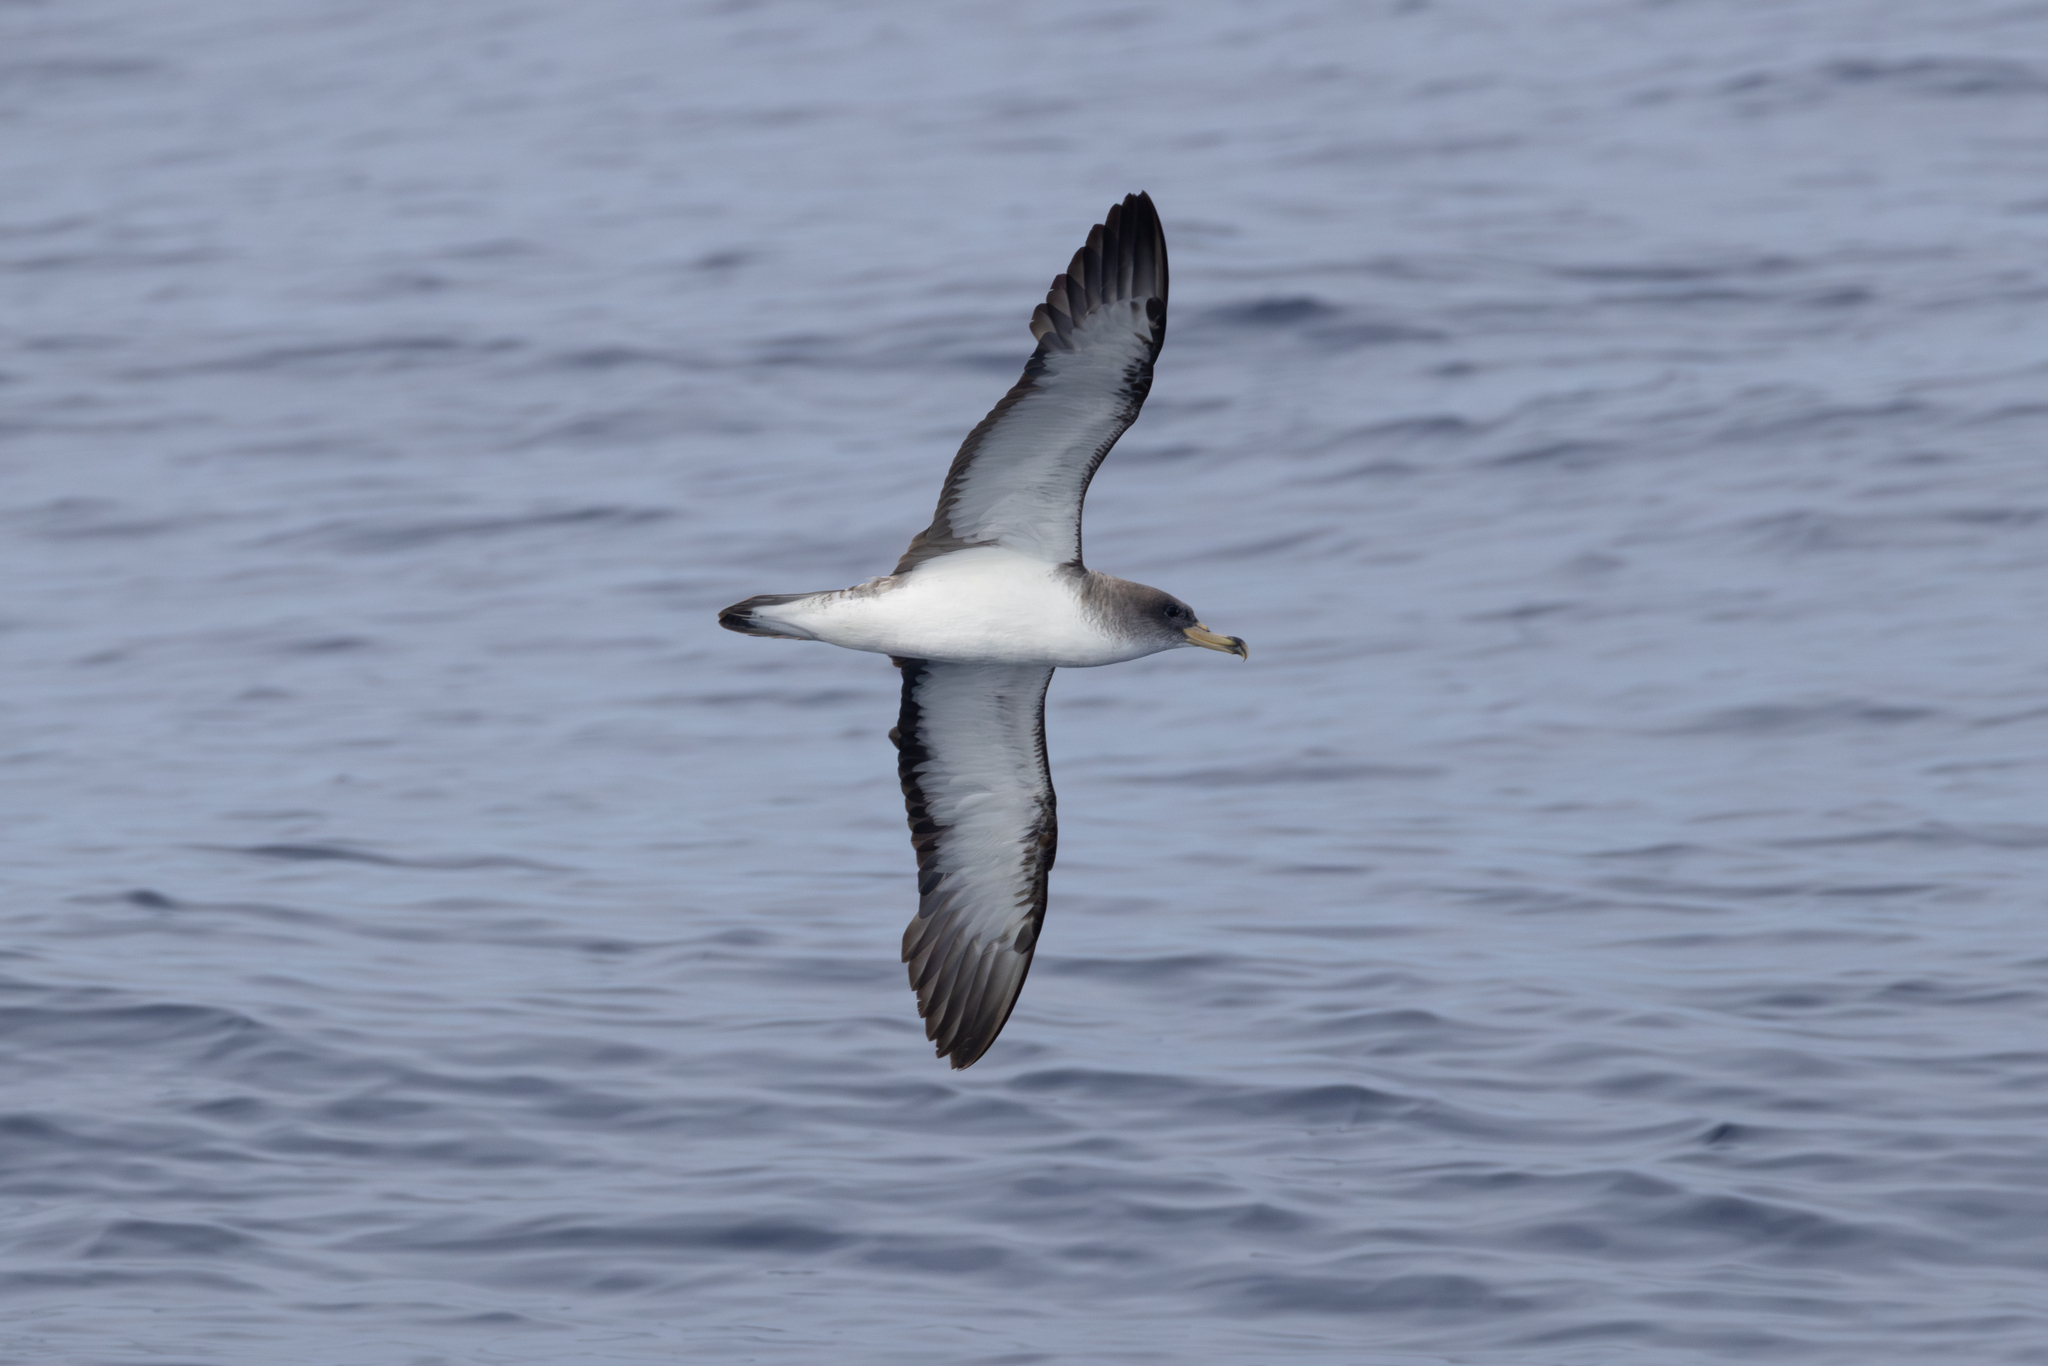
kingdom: Animalia
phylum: Chordata
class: Aves
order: Procellariiformes
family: Procellariidae
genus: Calonectris
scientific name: Calonectris diomedea
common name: Cory's shearwater
